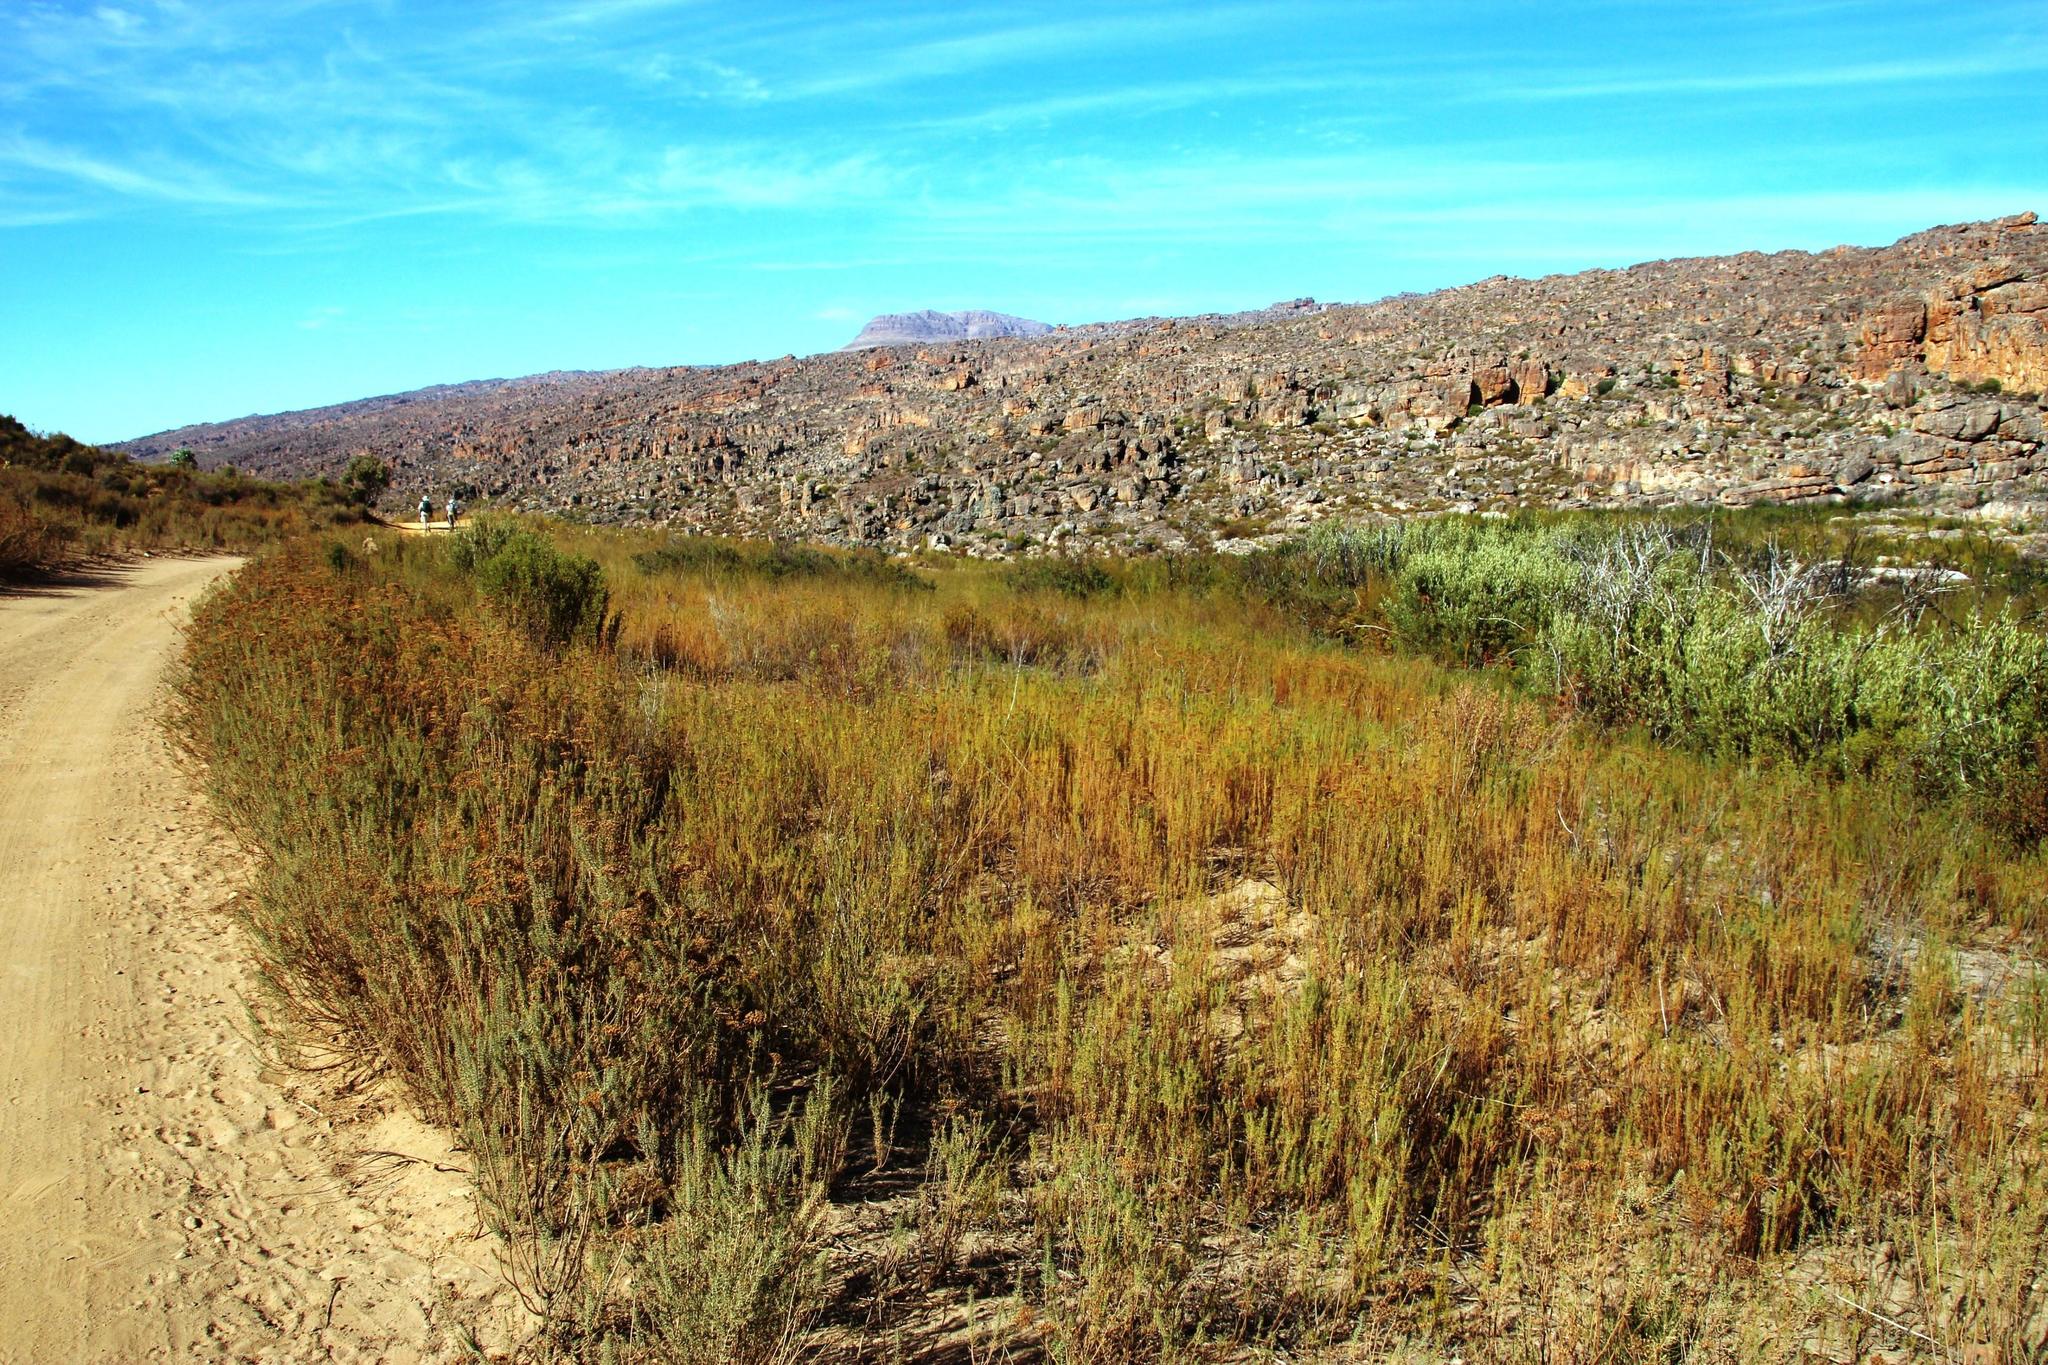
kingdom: Plantae
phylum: Tracheophyta
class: Magnoliopsida
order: Asterales
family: Asteraceae
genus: Athanasia
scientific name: Athanasia flexuosa
